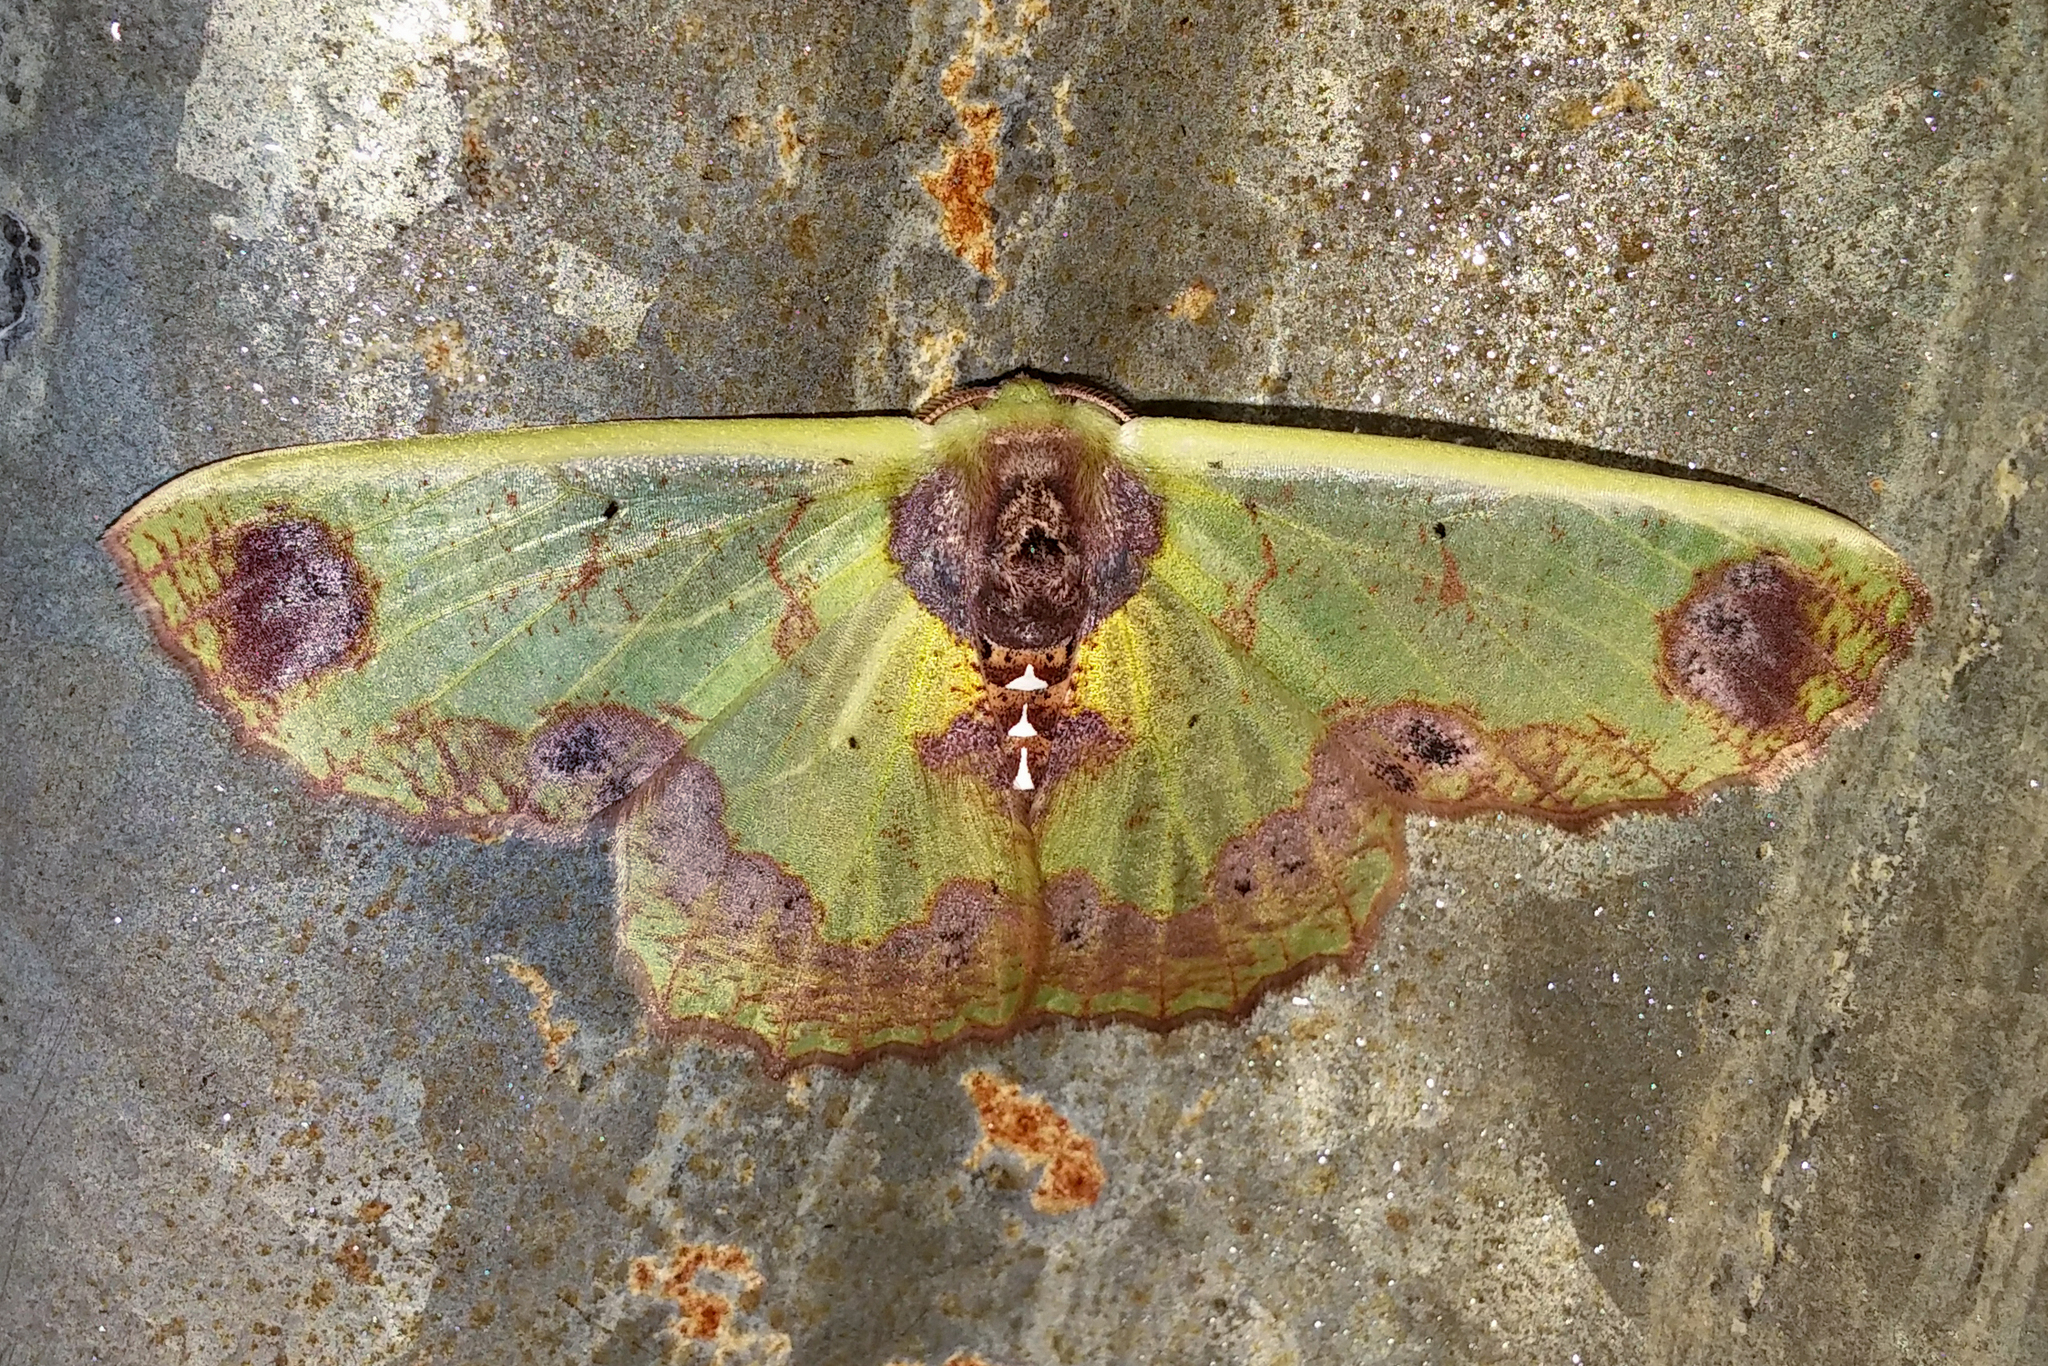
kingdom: Animalia
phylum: Arthropoda
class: Insecta
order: Lepidoptera
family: Geometridae
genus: Agathiopsis
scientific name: Agathiopsis basipuncta
